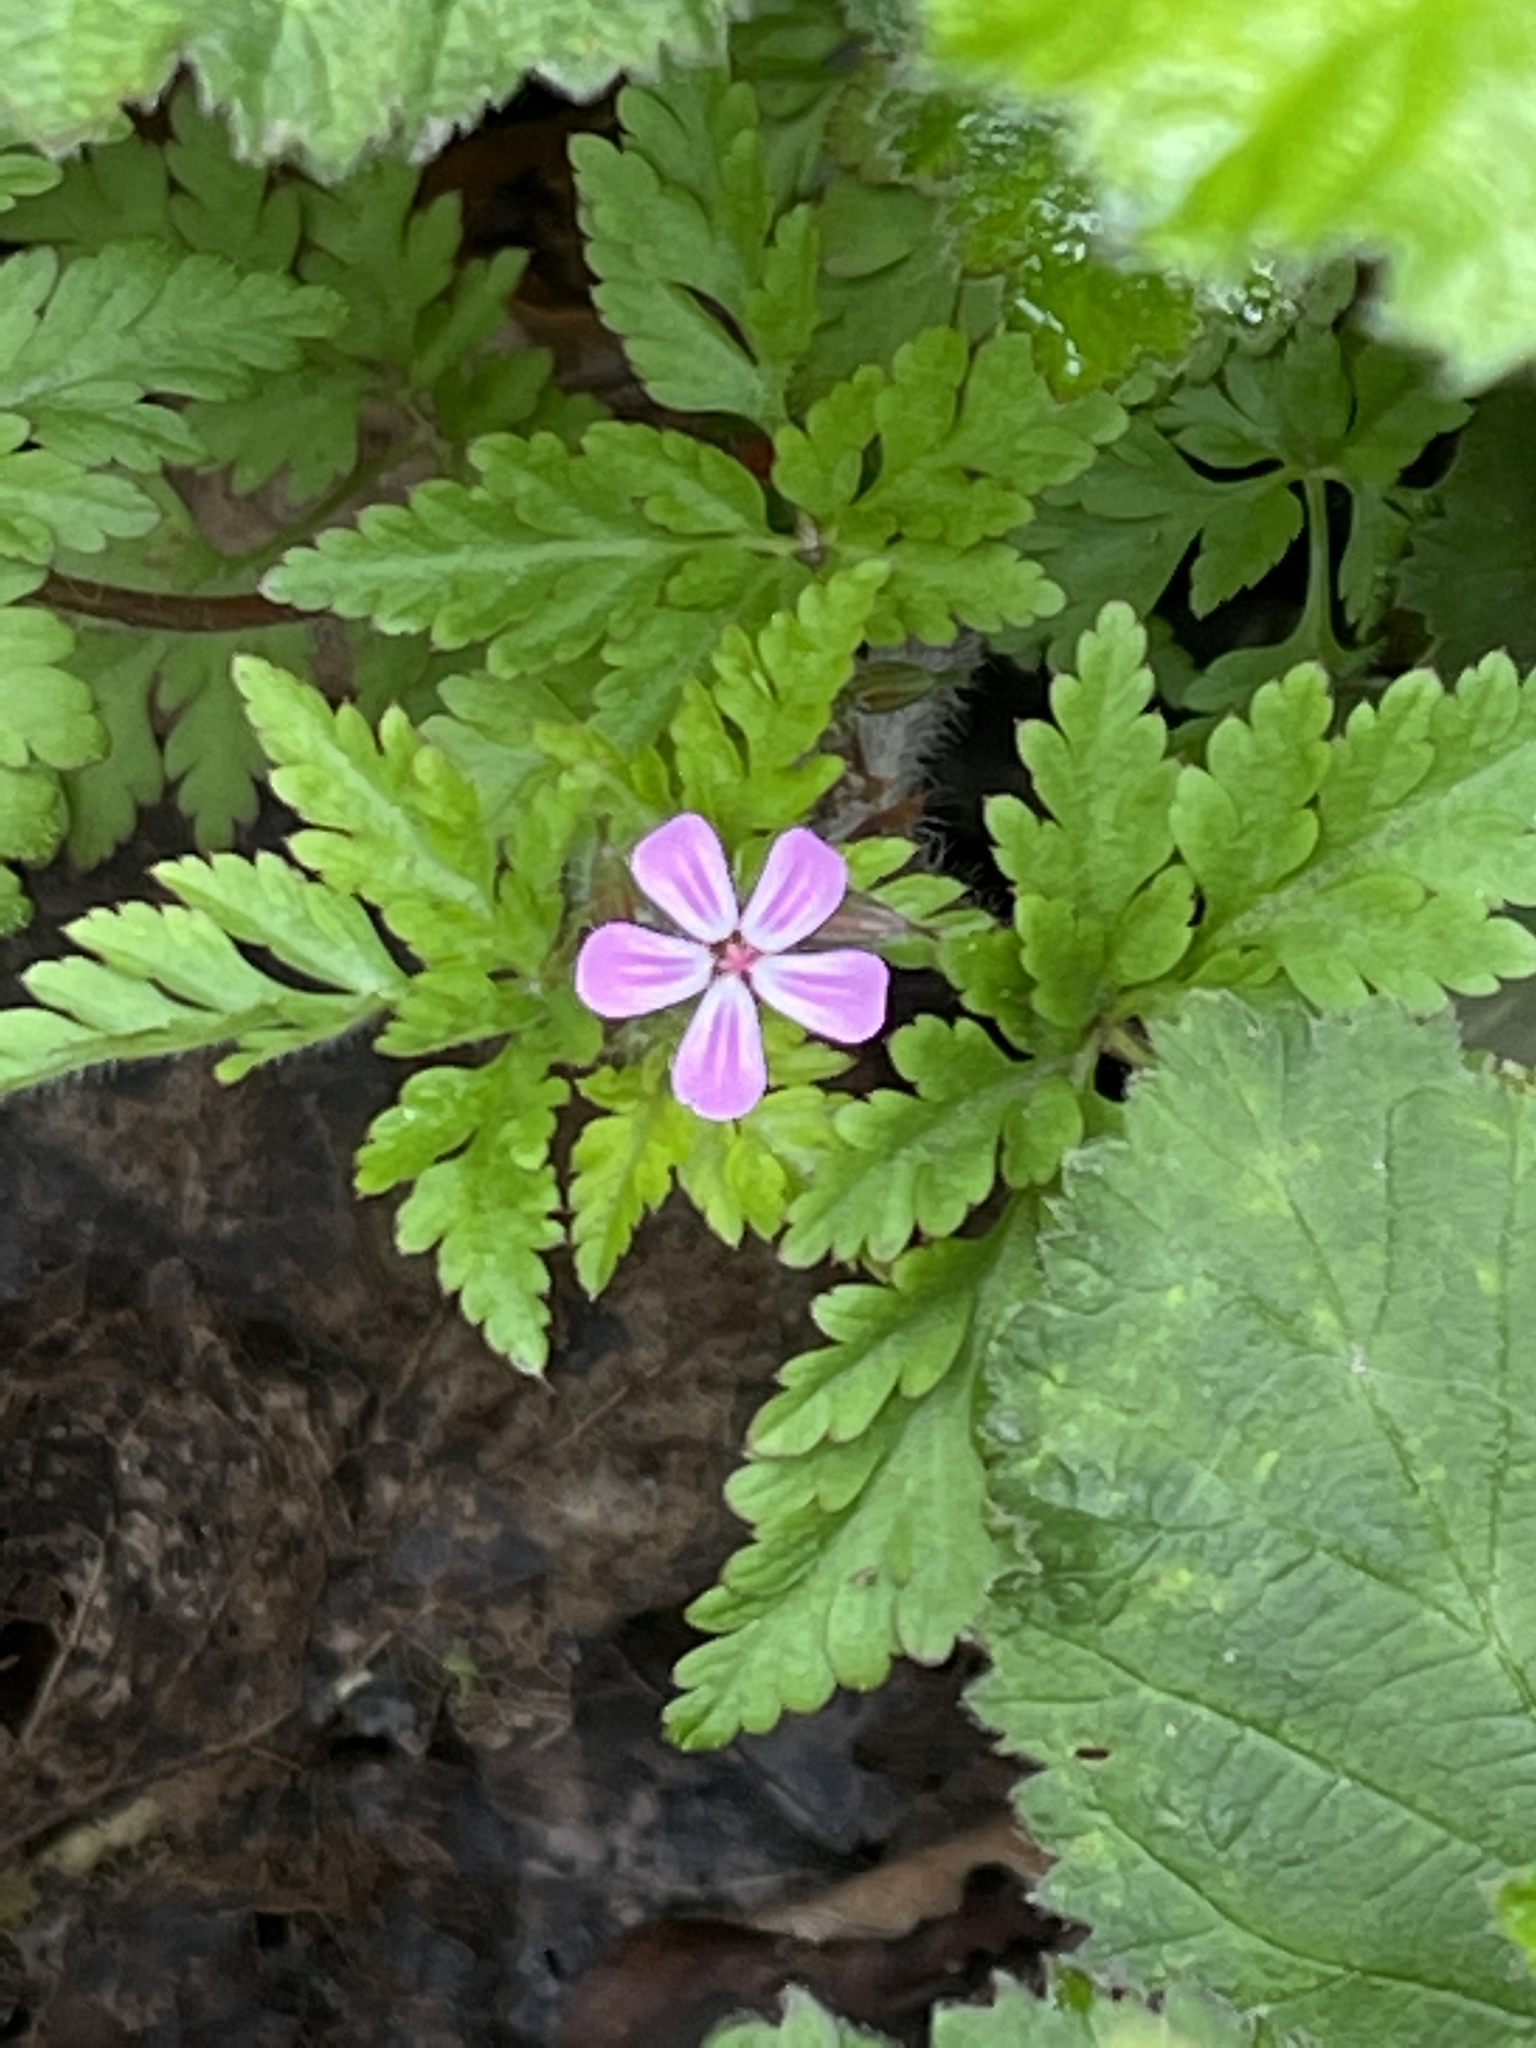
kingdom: Plantae
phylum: Tracheophyta
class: Magnoliopsida
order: Geraniales
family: Geraniaceae
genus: Geranium
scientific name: Geranium robertianum
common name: Herb-robert
